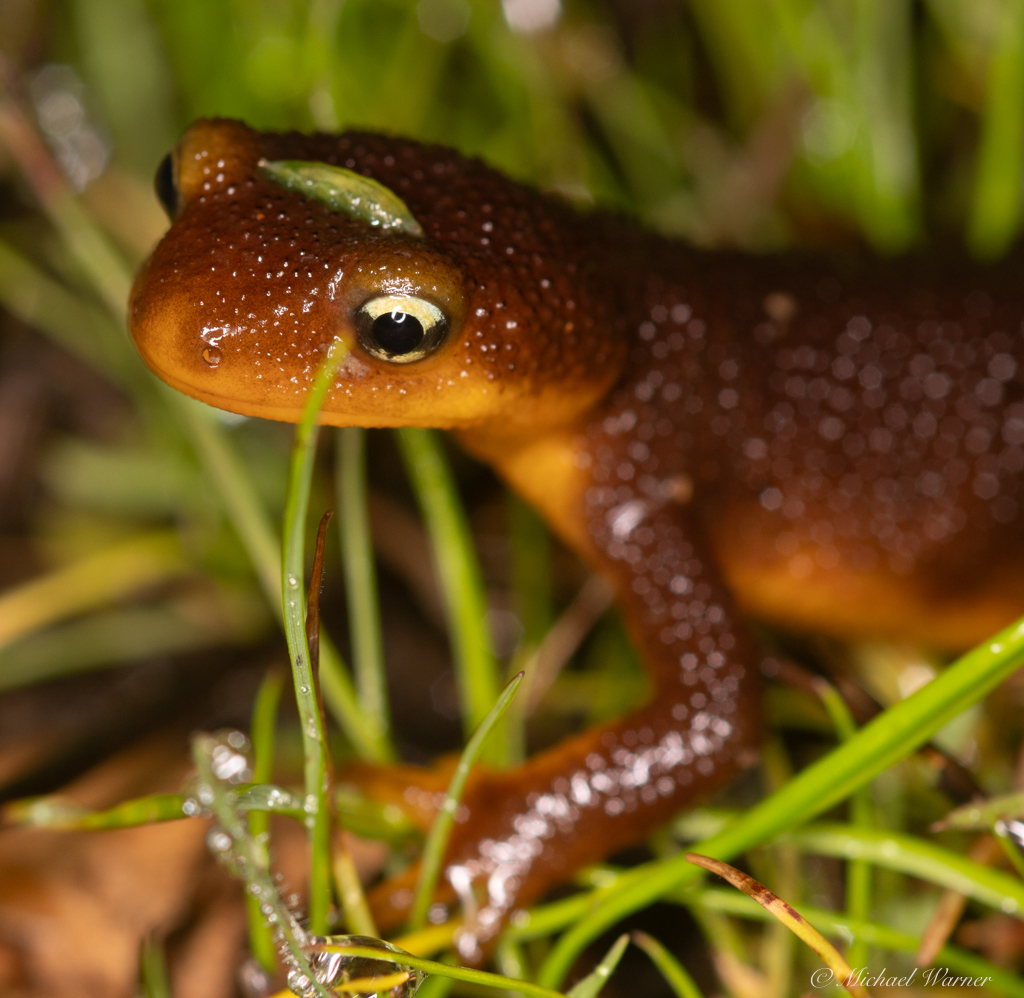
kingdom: Animalia
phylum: Chordata
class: Amphibia
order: Caudata
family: Salamandridae
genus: Taricha
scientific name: Taricha torosa
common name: California newt
